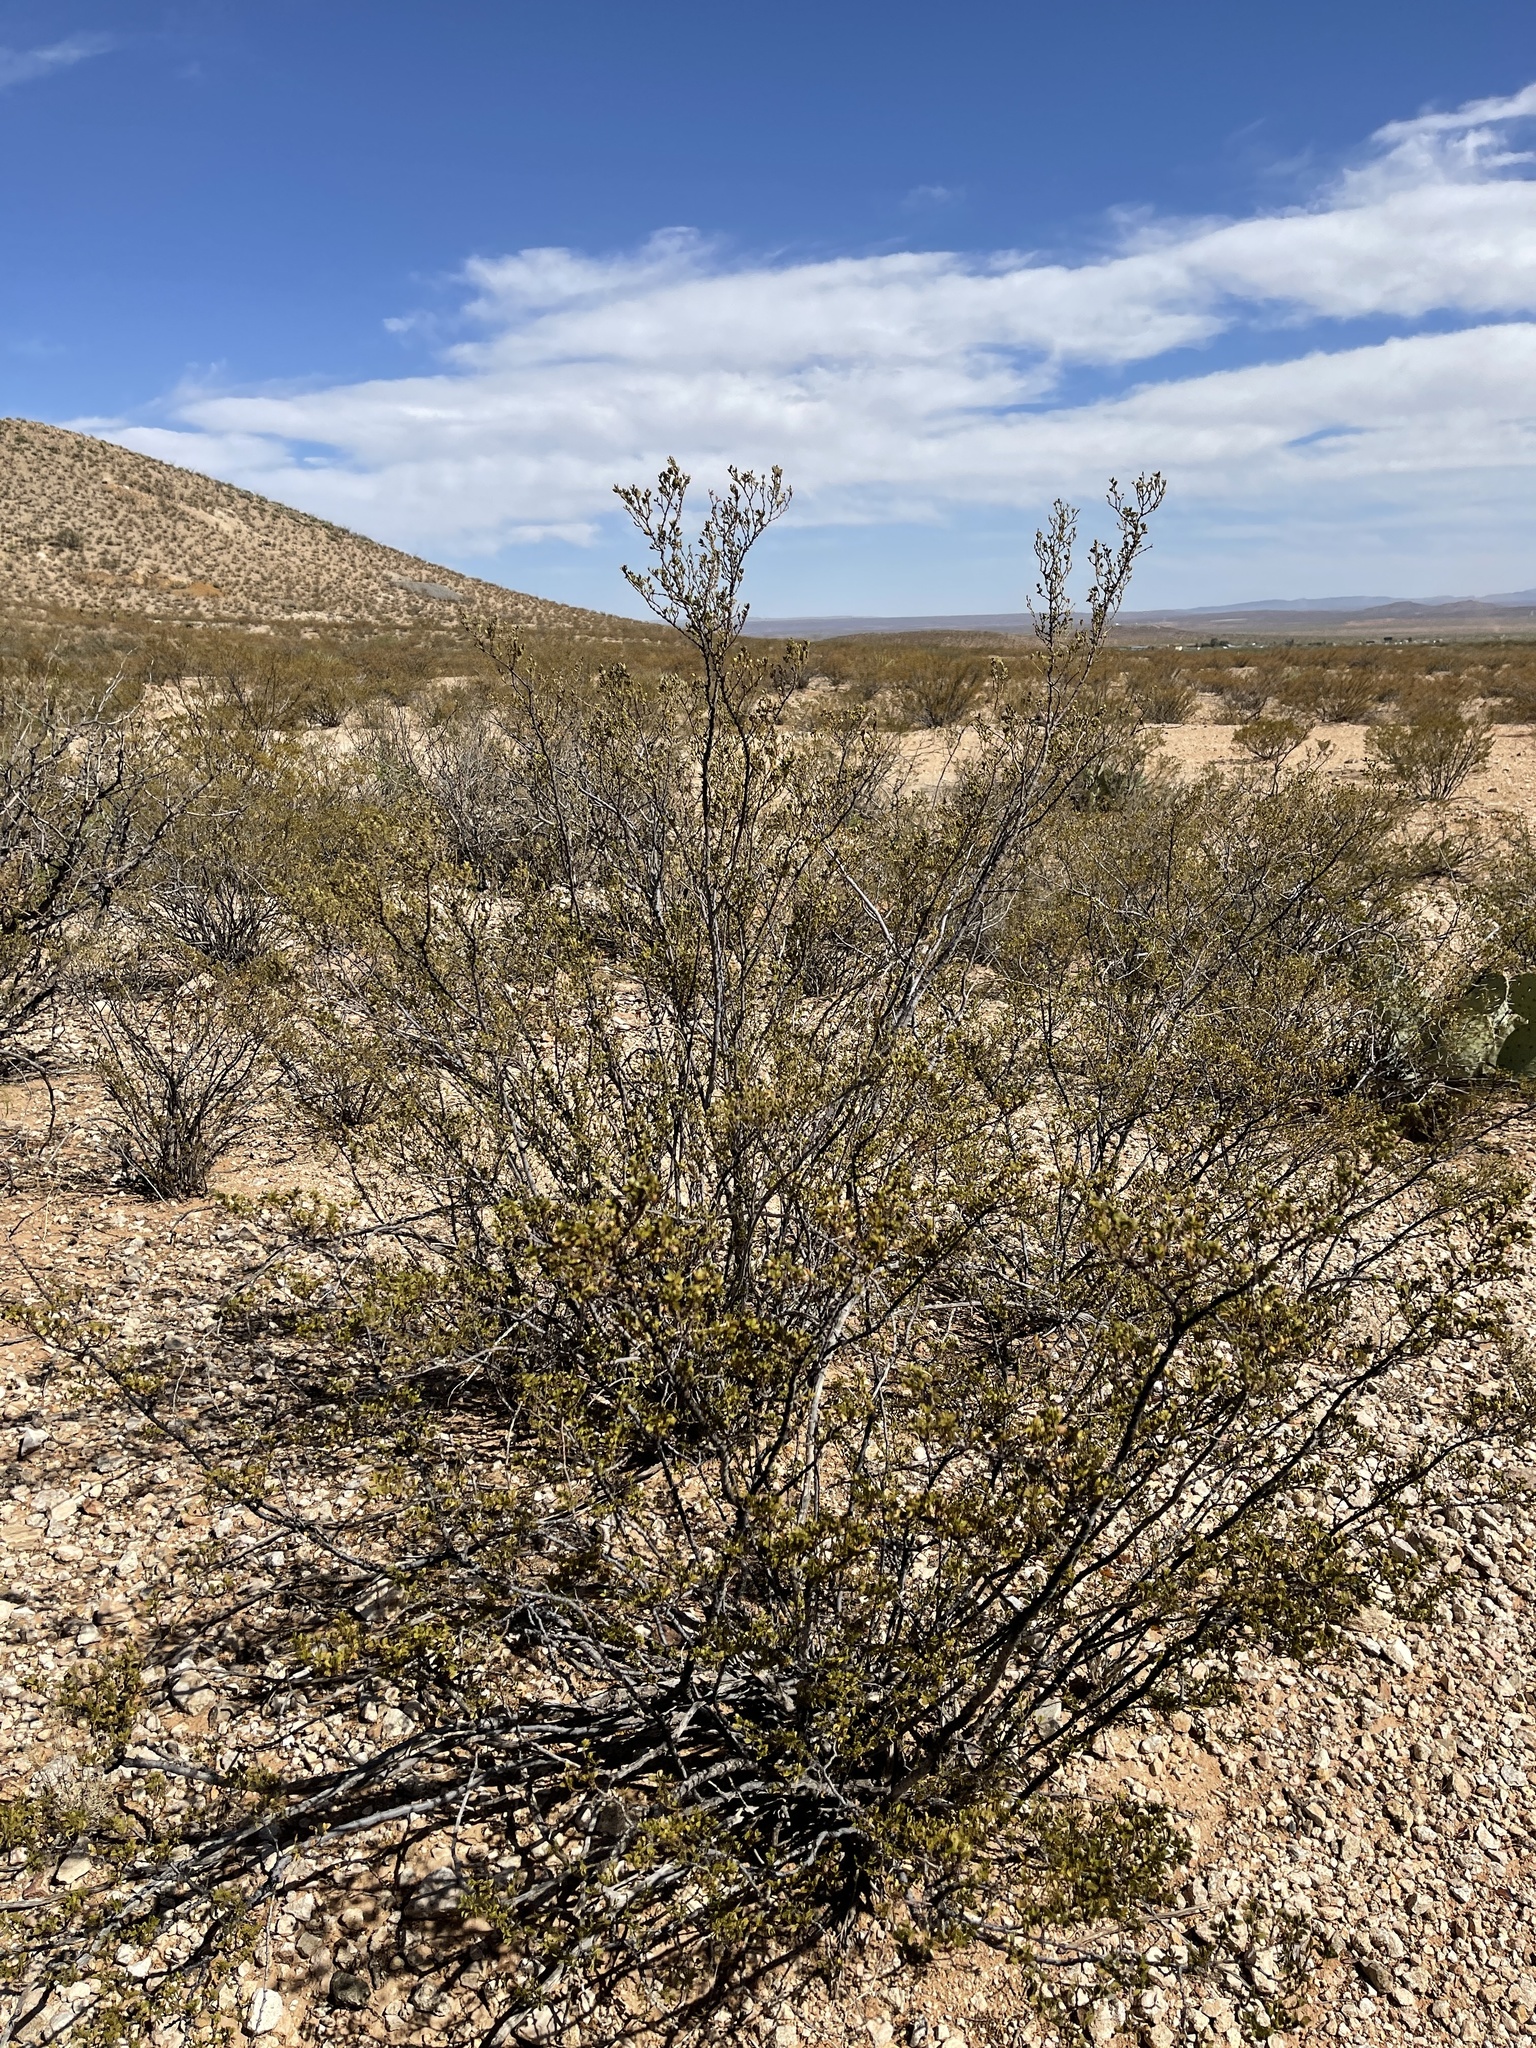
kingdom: Plantae
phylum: Tracheophyta
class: Magnoliopsida
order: Zygophyllales
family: Zygophyllaceae
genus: Larrea
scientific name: Larrea tridentata
